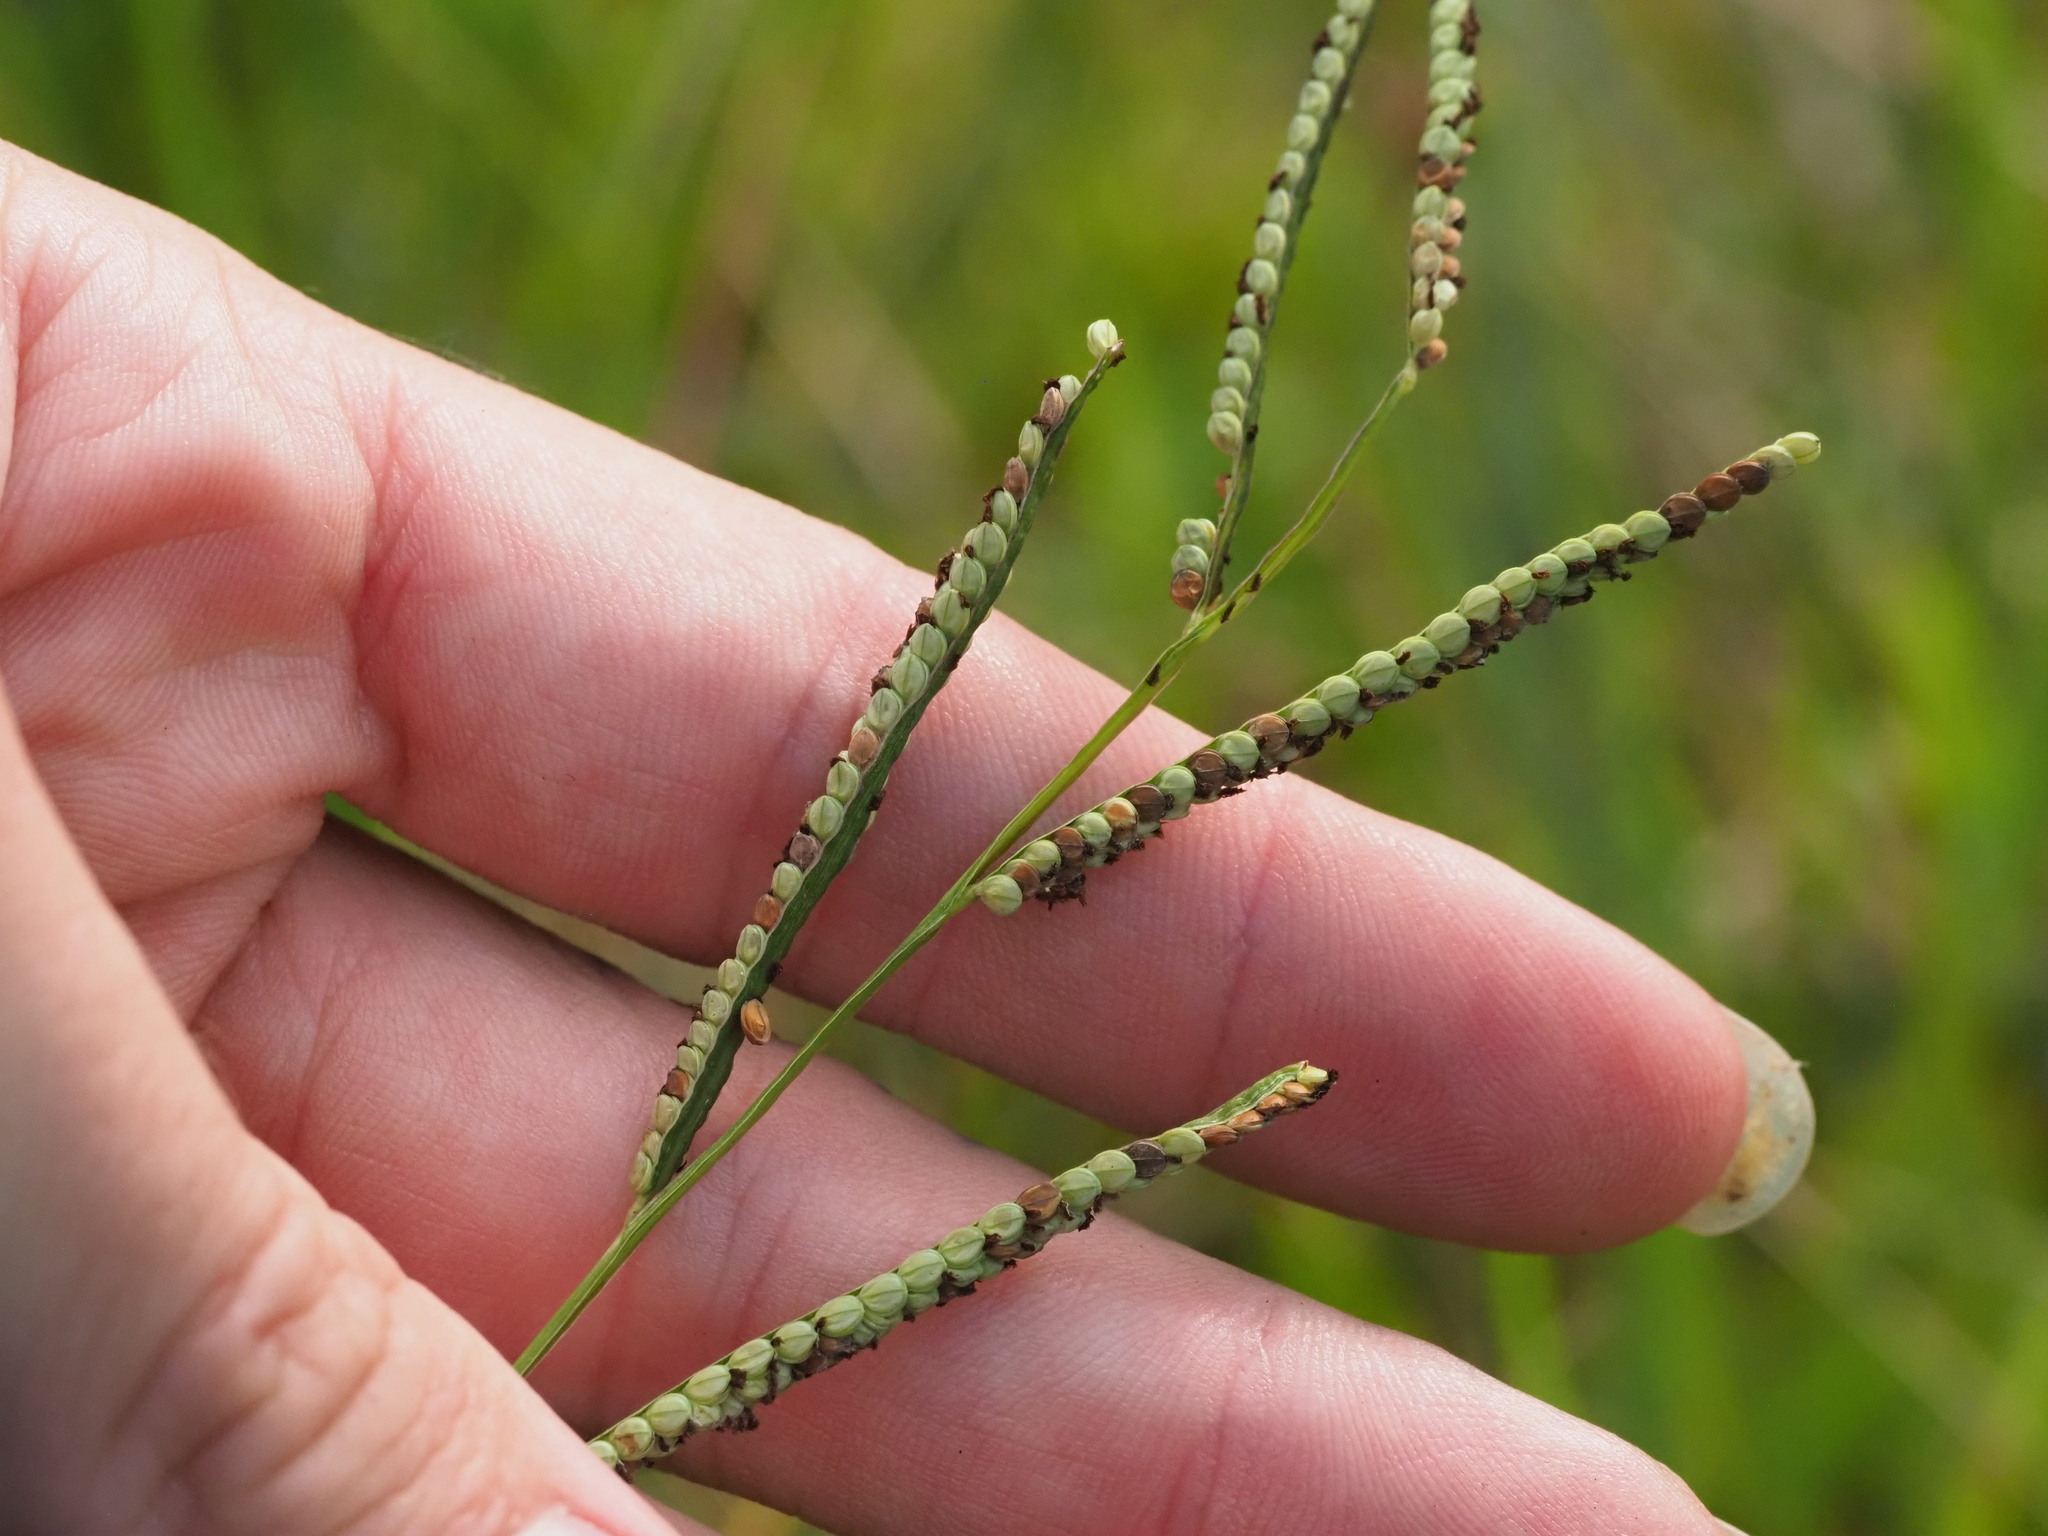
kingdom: Plantae
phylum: Tracheophyta
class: Liliopsida
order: Poales
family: Poaceae
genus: Paspalum
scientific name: Paspalum scrobiculatum
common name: Kodo millet
